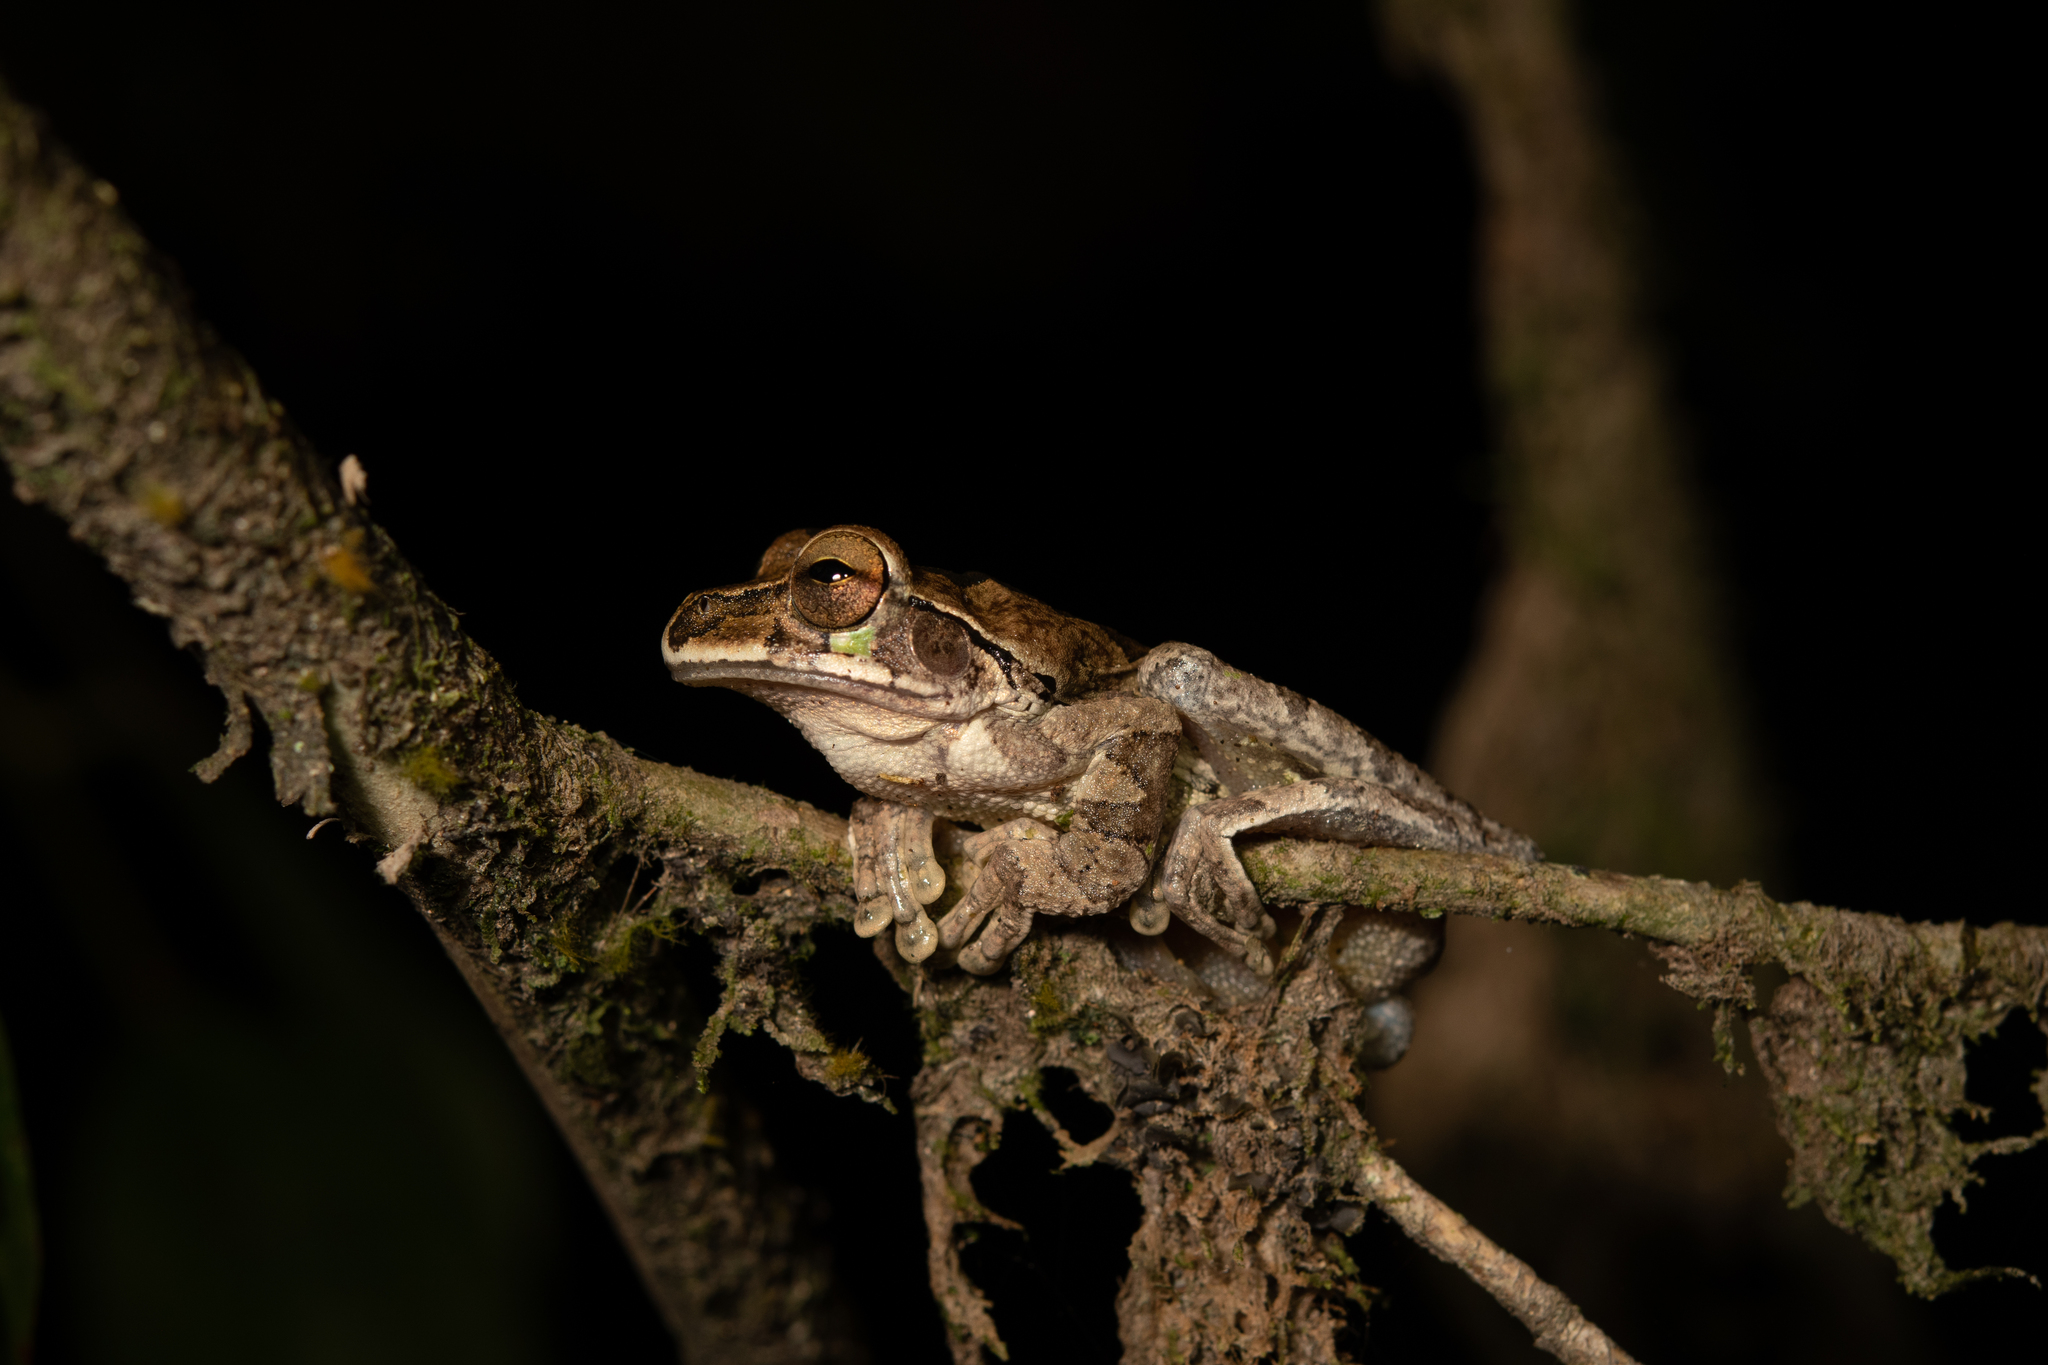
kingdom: Animalia
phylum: Chordata
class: Amphibia
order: Anura
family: Hylidae
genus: Smilisca
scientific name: Smilisca baudinii
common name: Mexican smilisca
